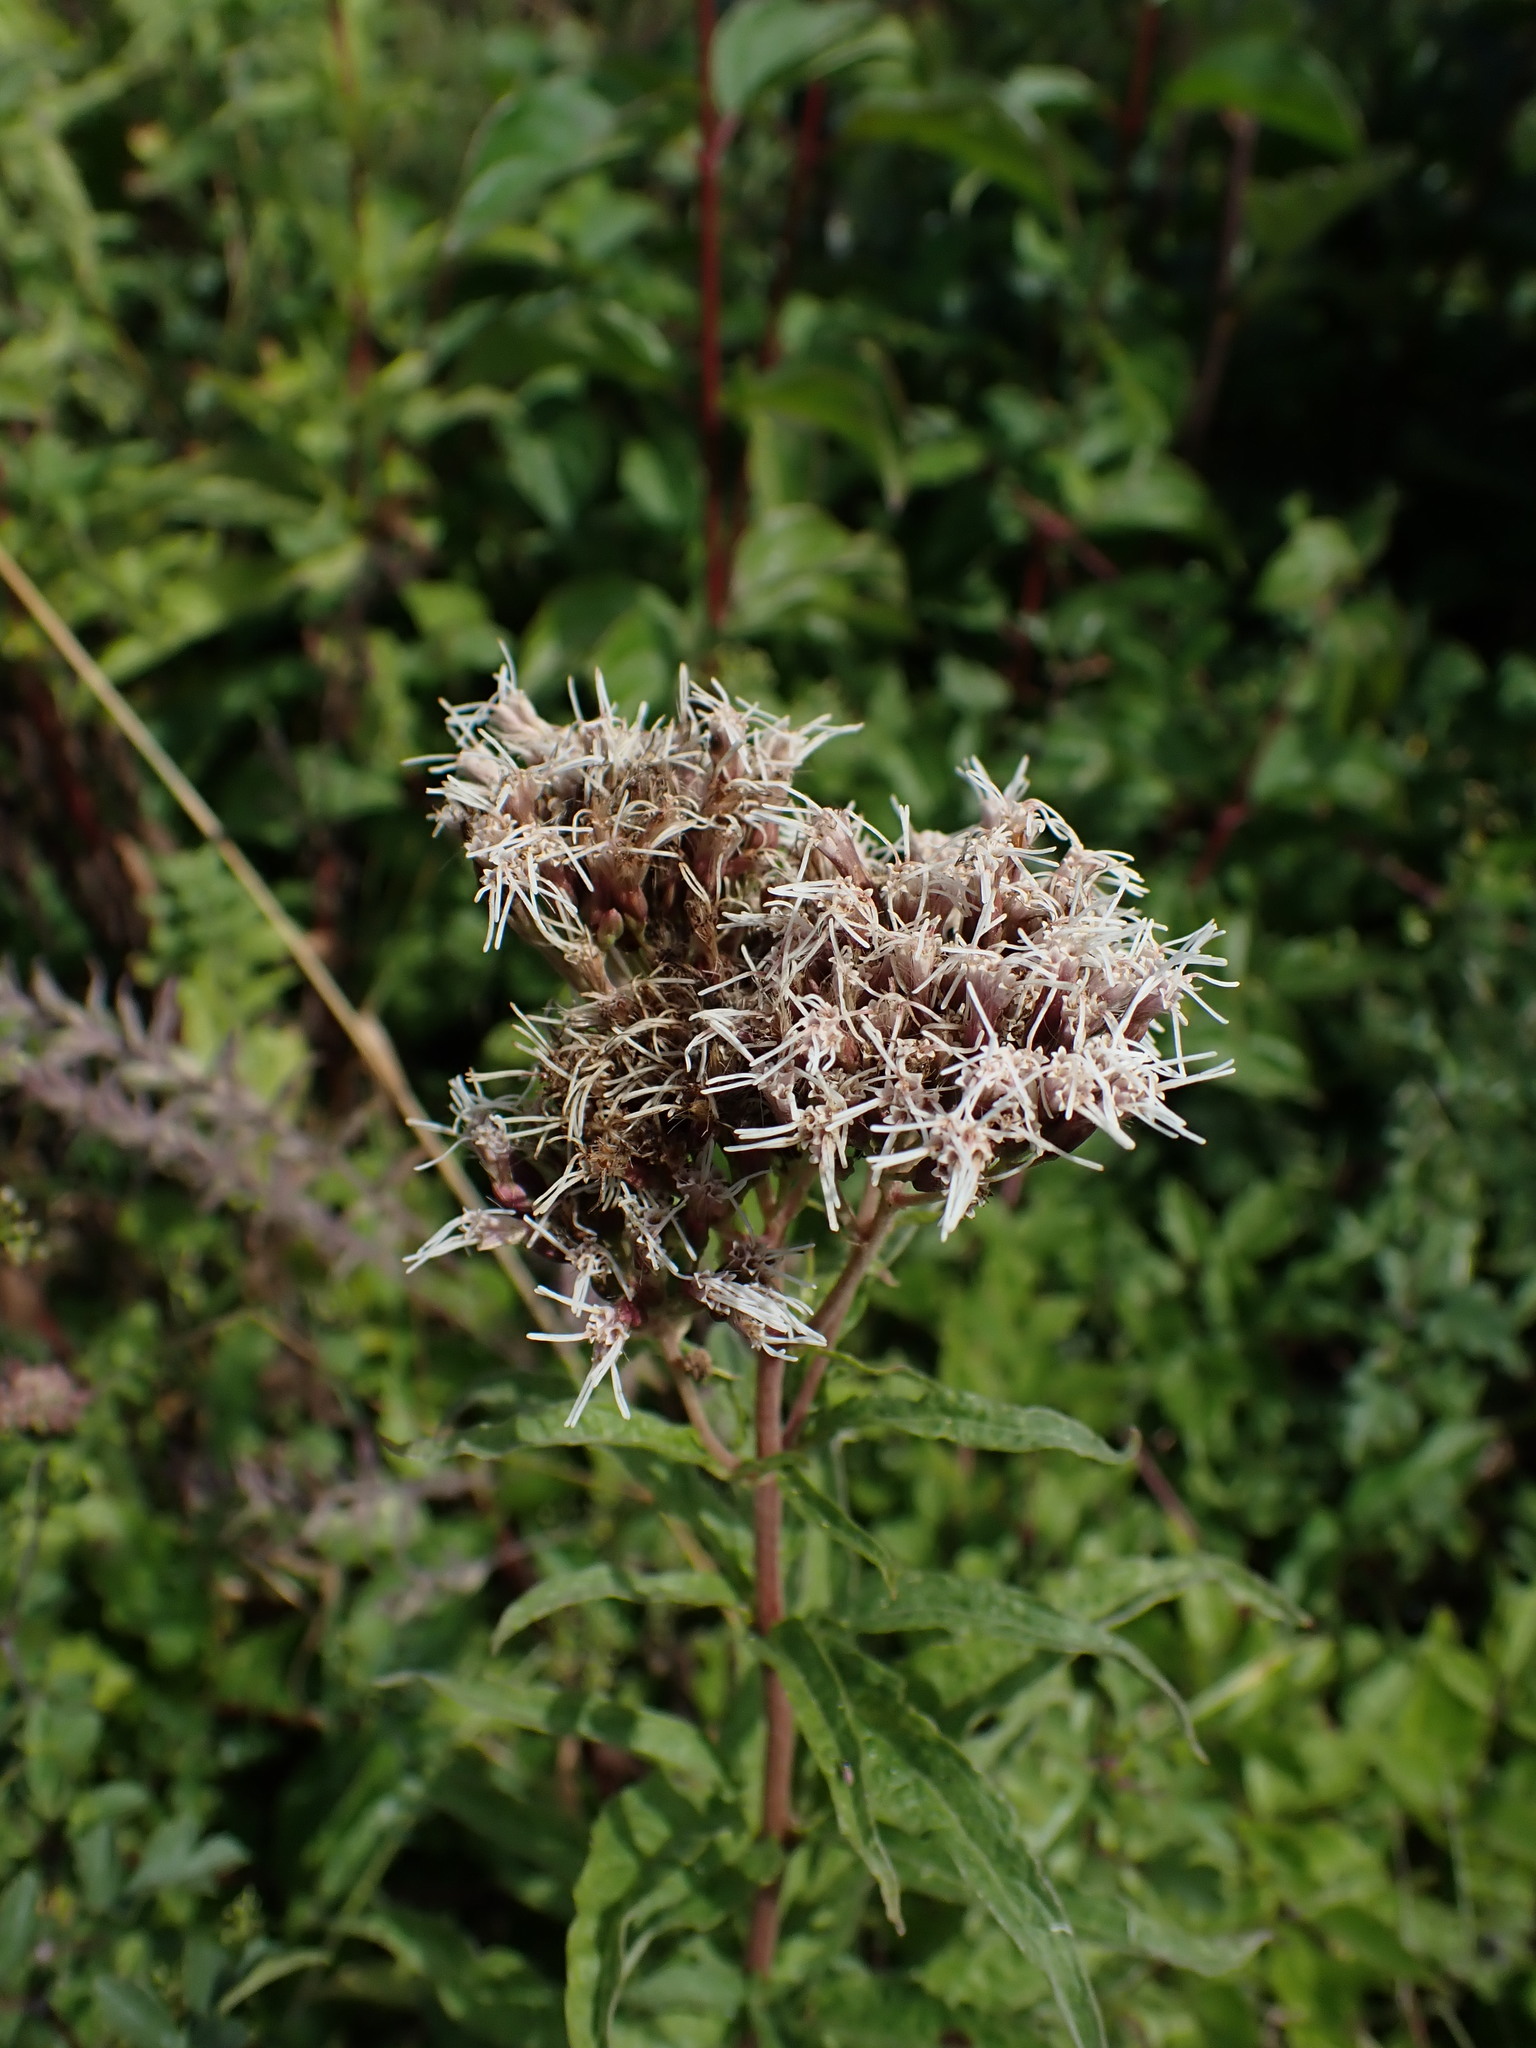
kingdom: Plantae
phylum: Tracheophyta
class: Magnoliopsida
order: Asterales
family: Asteraceae
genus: Eupatorium
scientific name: Eupatorium cannabinum
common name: Hemp-agrimony
